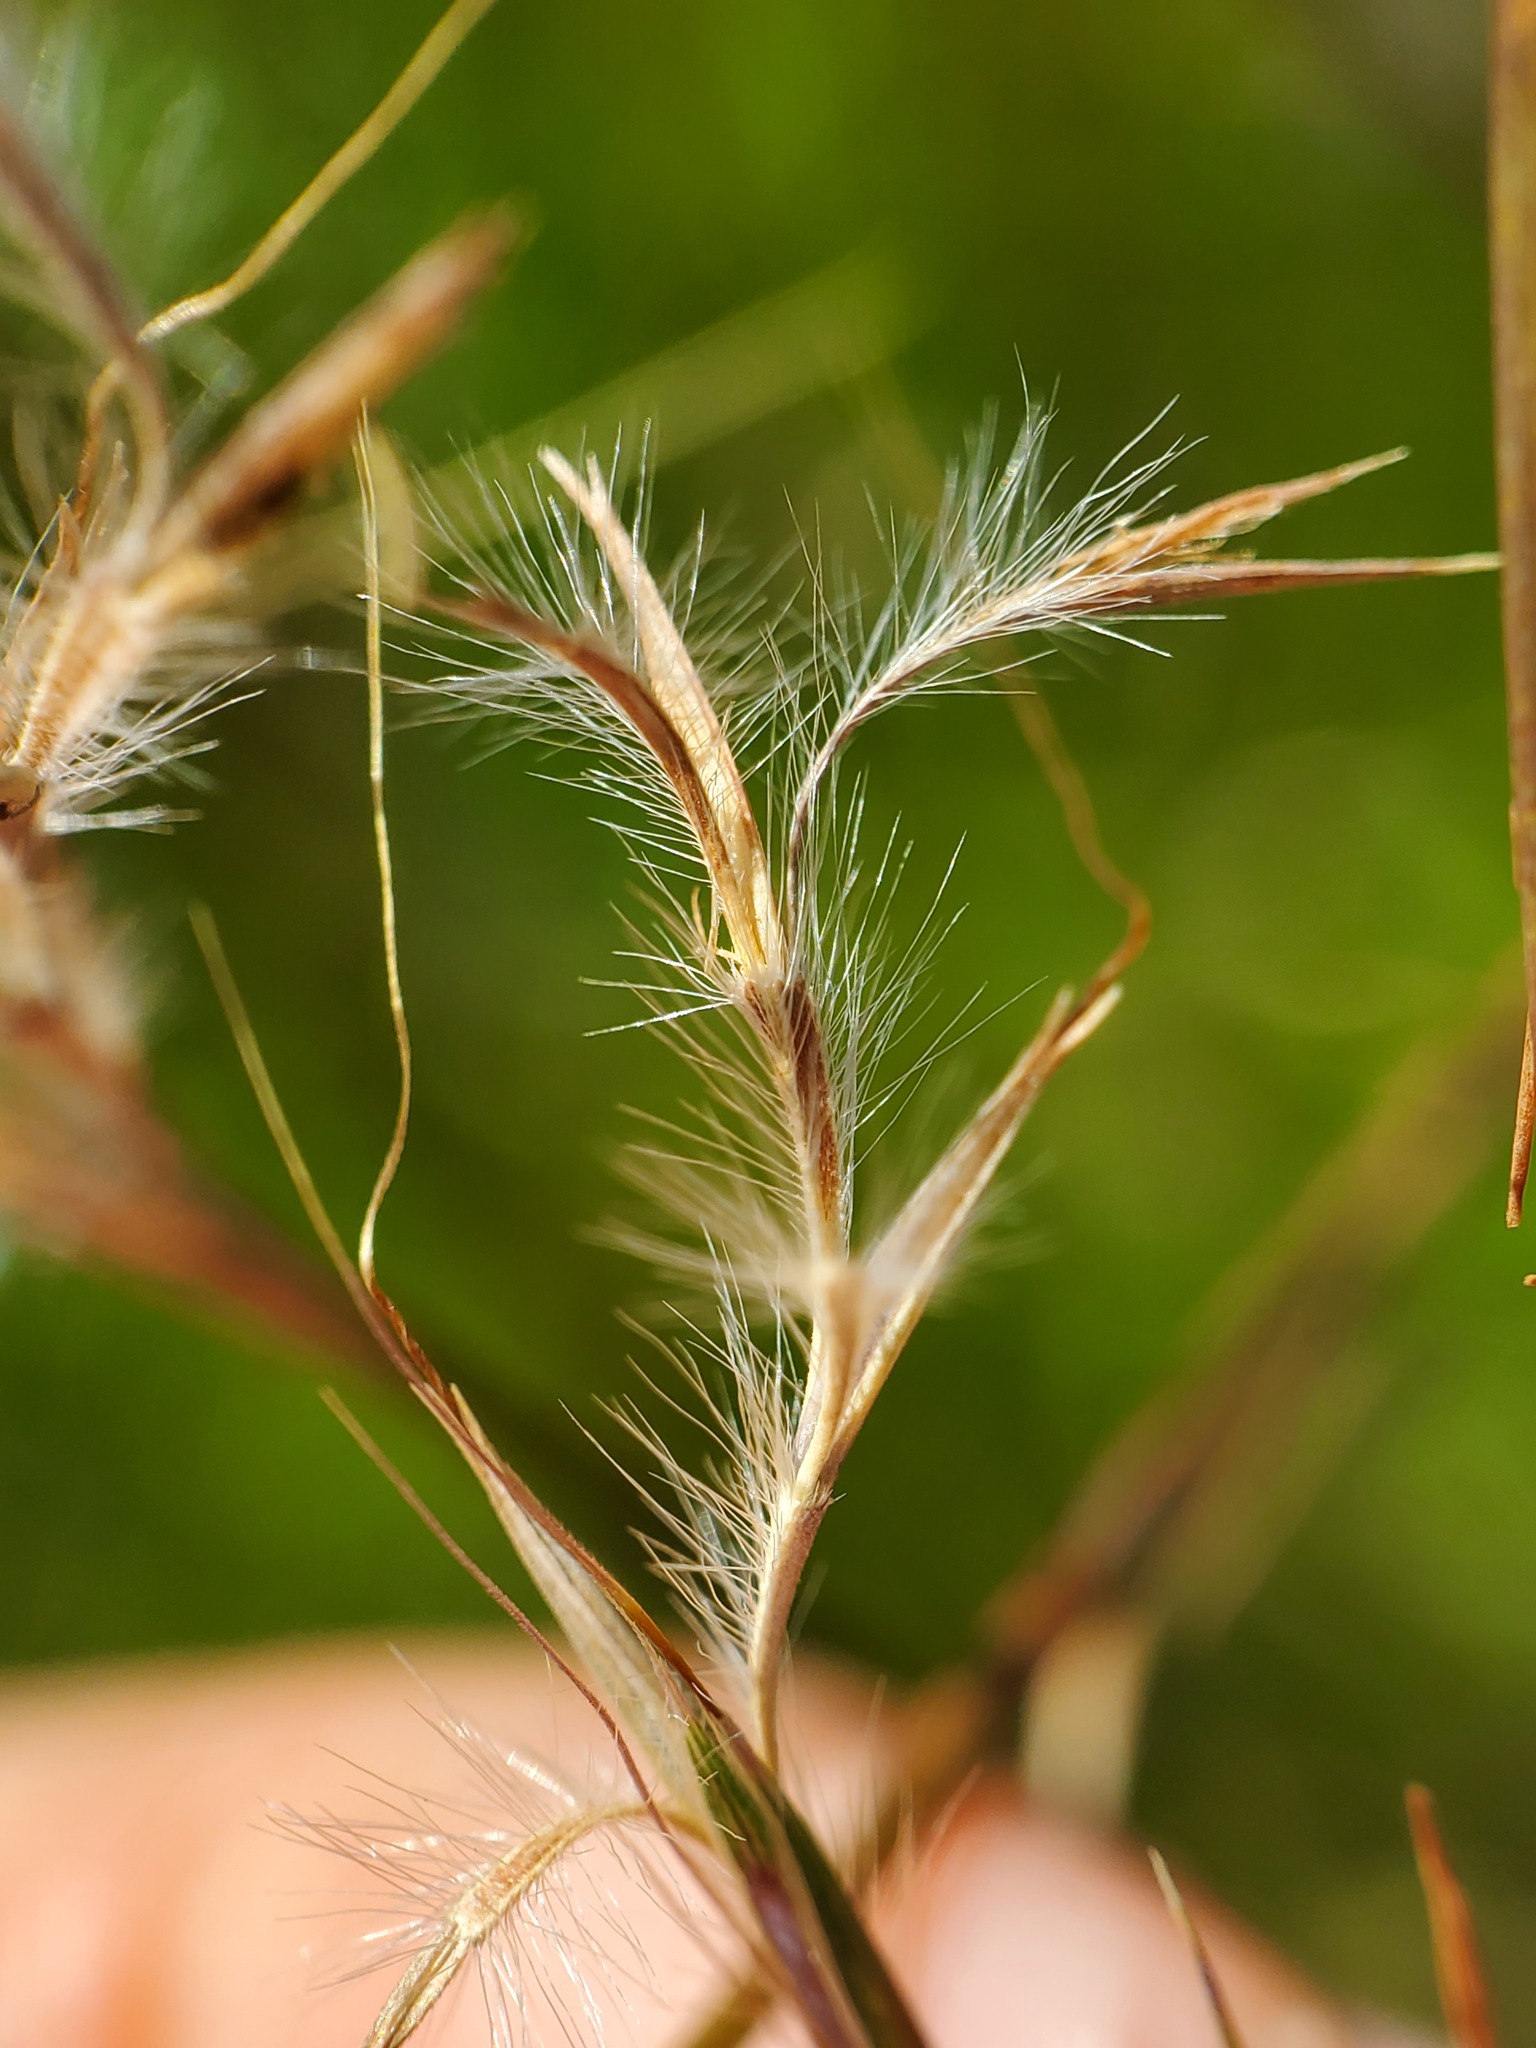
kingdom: Plantae
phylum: Tracheophyta
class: Liliopsida
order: Poales
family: Poaceae
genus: Schizachyrium
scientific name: Schizachyrium scoparium
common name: Little bluestem
